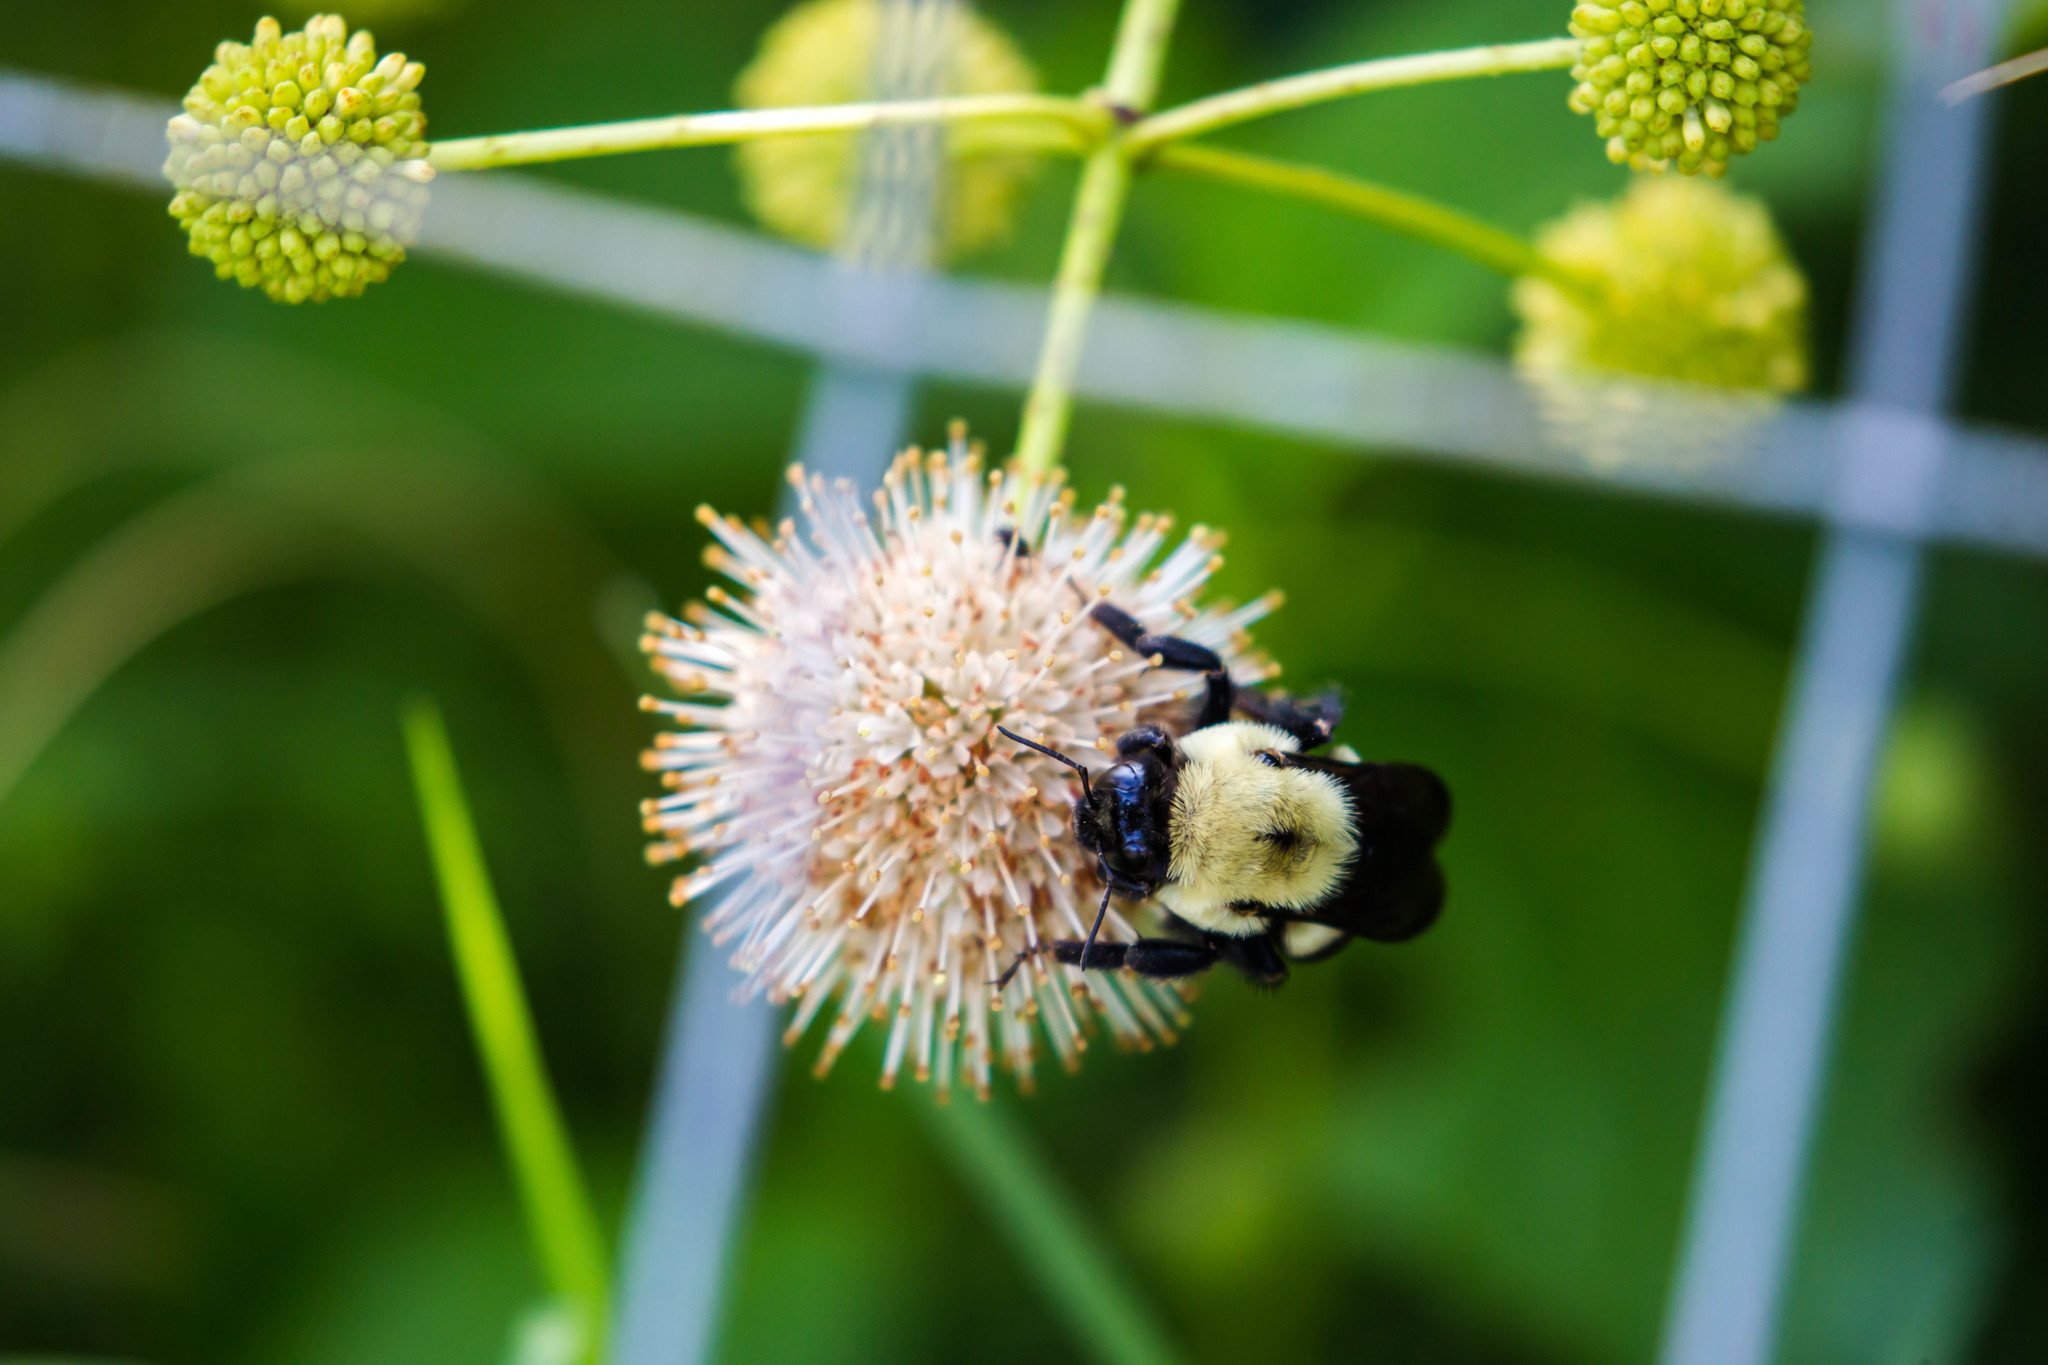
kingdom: Animalia
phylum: Arthropoda
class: Insecta
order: Hymenoptera
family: Apidae
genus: Bombus
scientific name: Bombus griseocollis
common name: Brown-belted bumble bee
